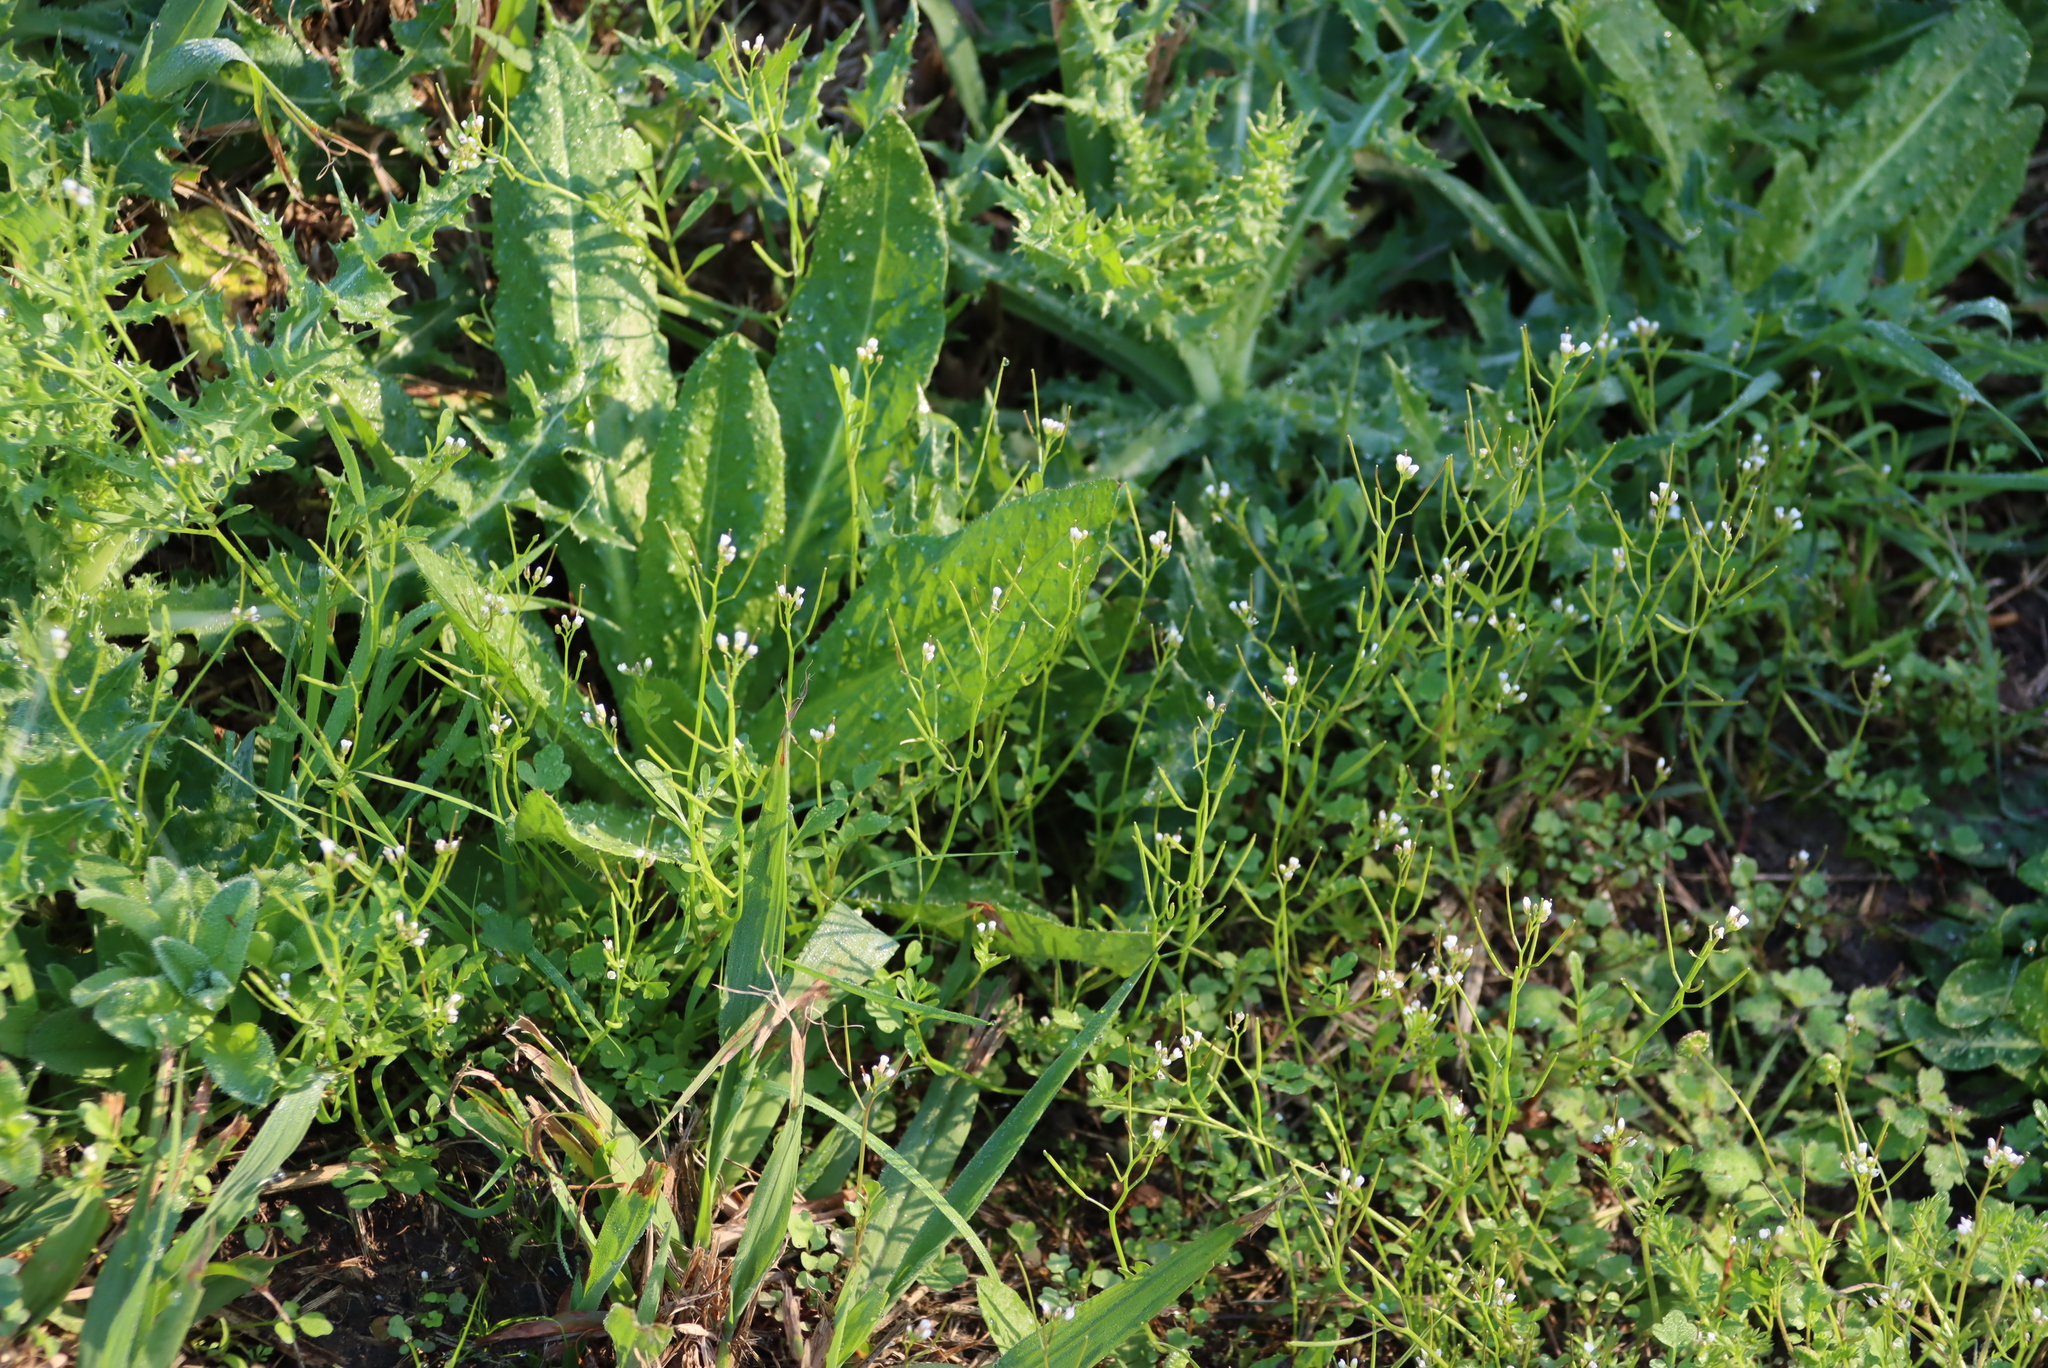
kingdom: Plantae
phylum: Tracheophyta
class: Magnoliopsida
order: Brassicales
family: Brassicaceae
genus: Cardamine
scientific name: Cardamine hirsuta
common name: Hairy bittercress
